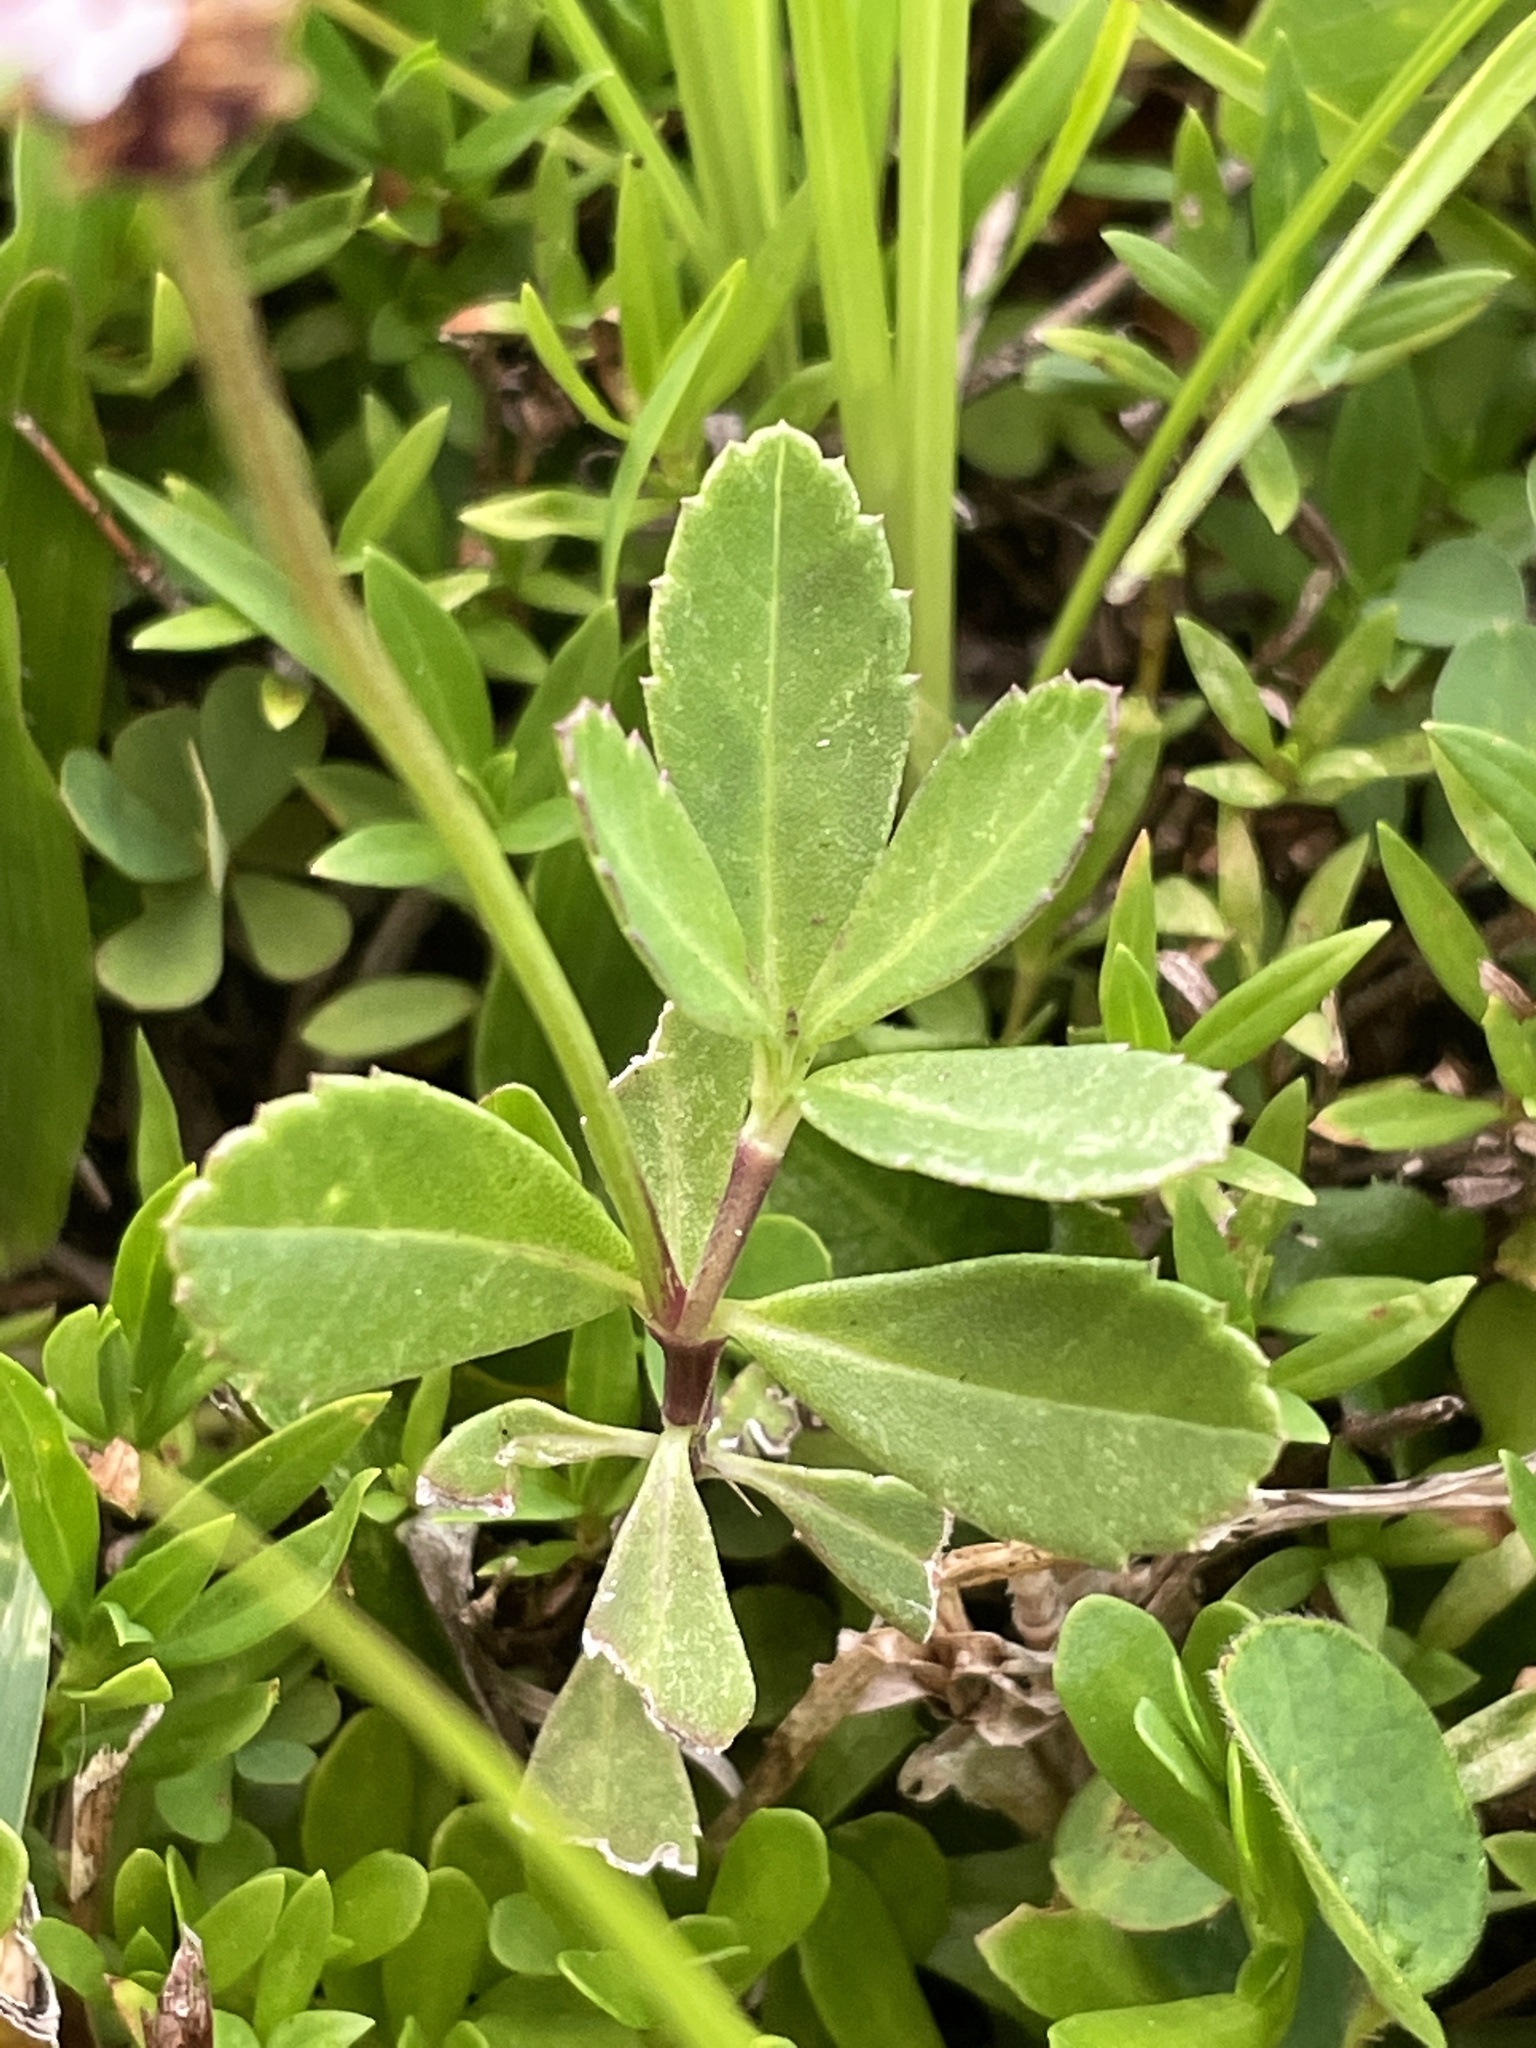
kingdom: Plantae
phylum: Tracheophyta
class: Magnoliopsida
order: Lamiales
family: Verbenaceae
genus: Phyla
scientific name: Phyla nodiflora
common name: Frogfruit
